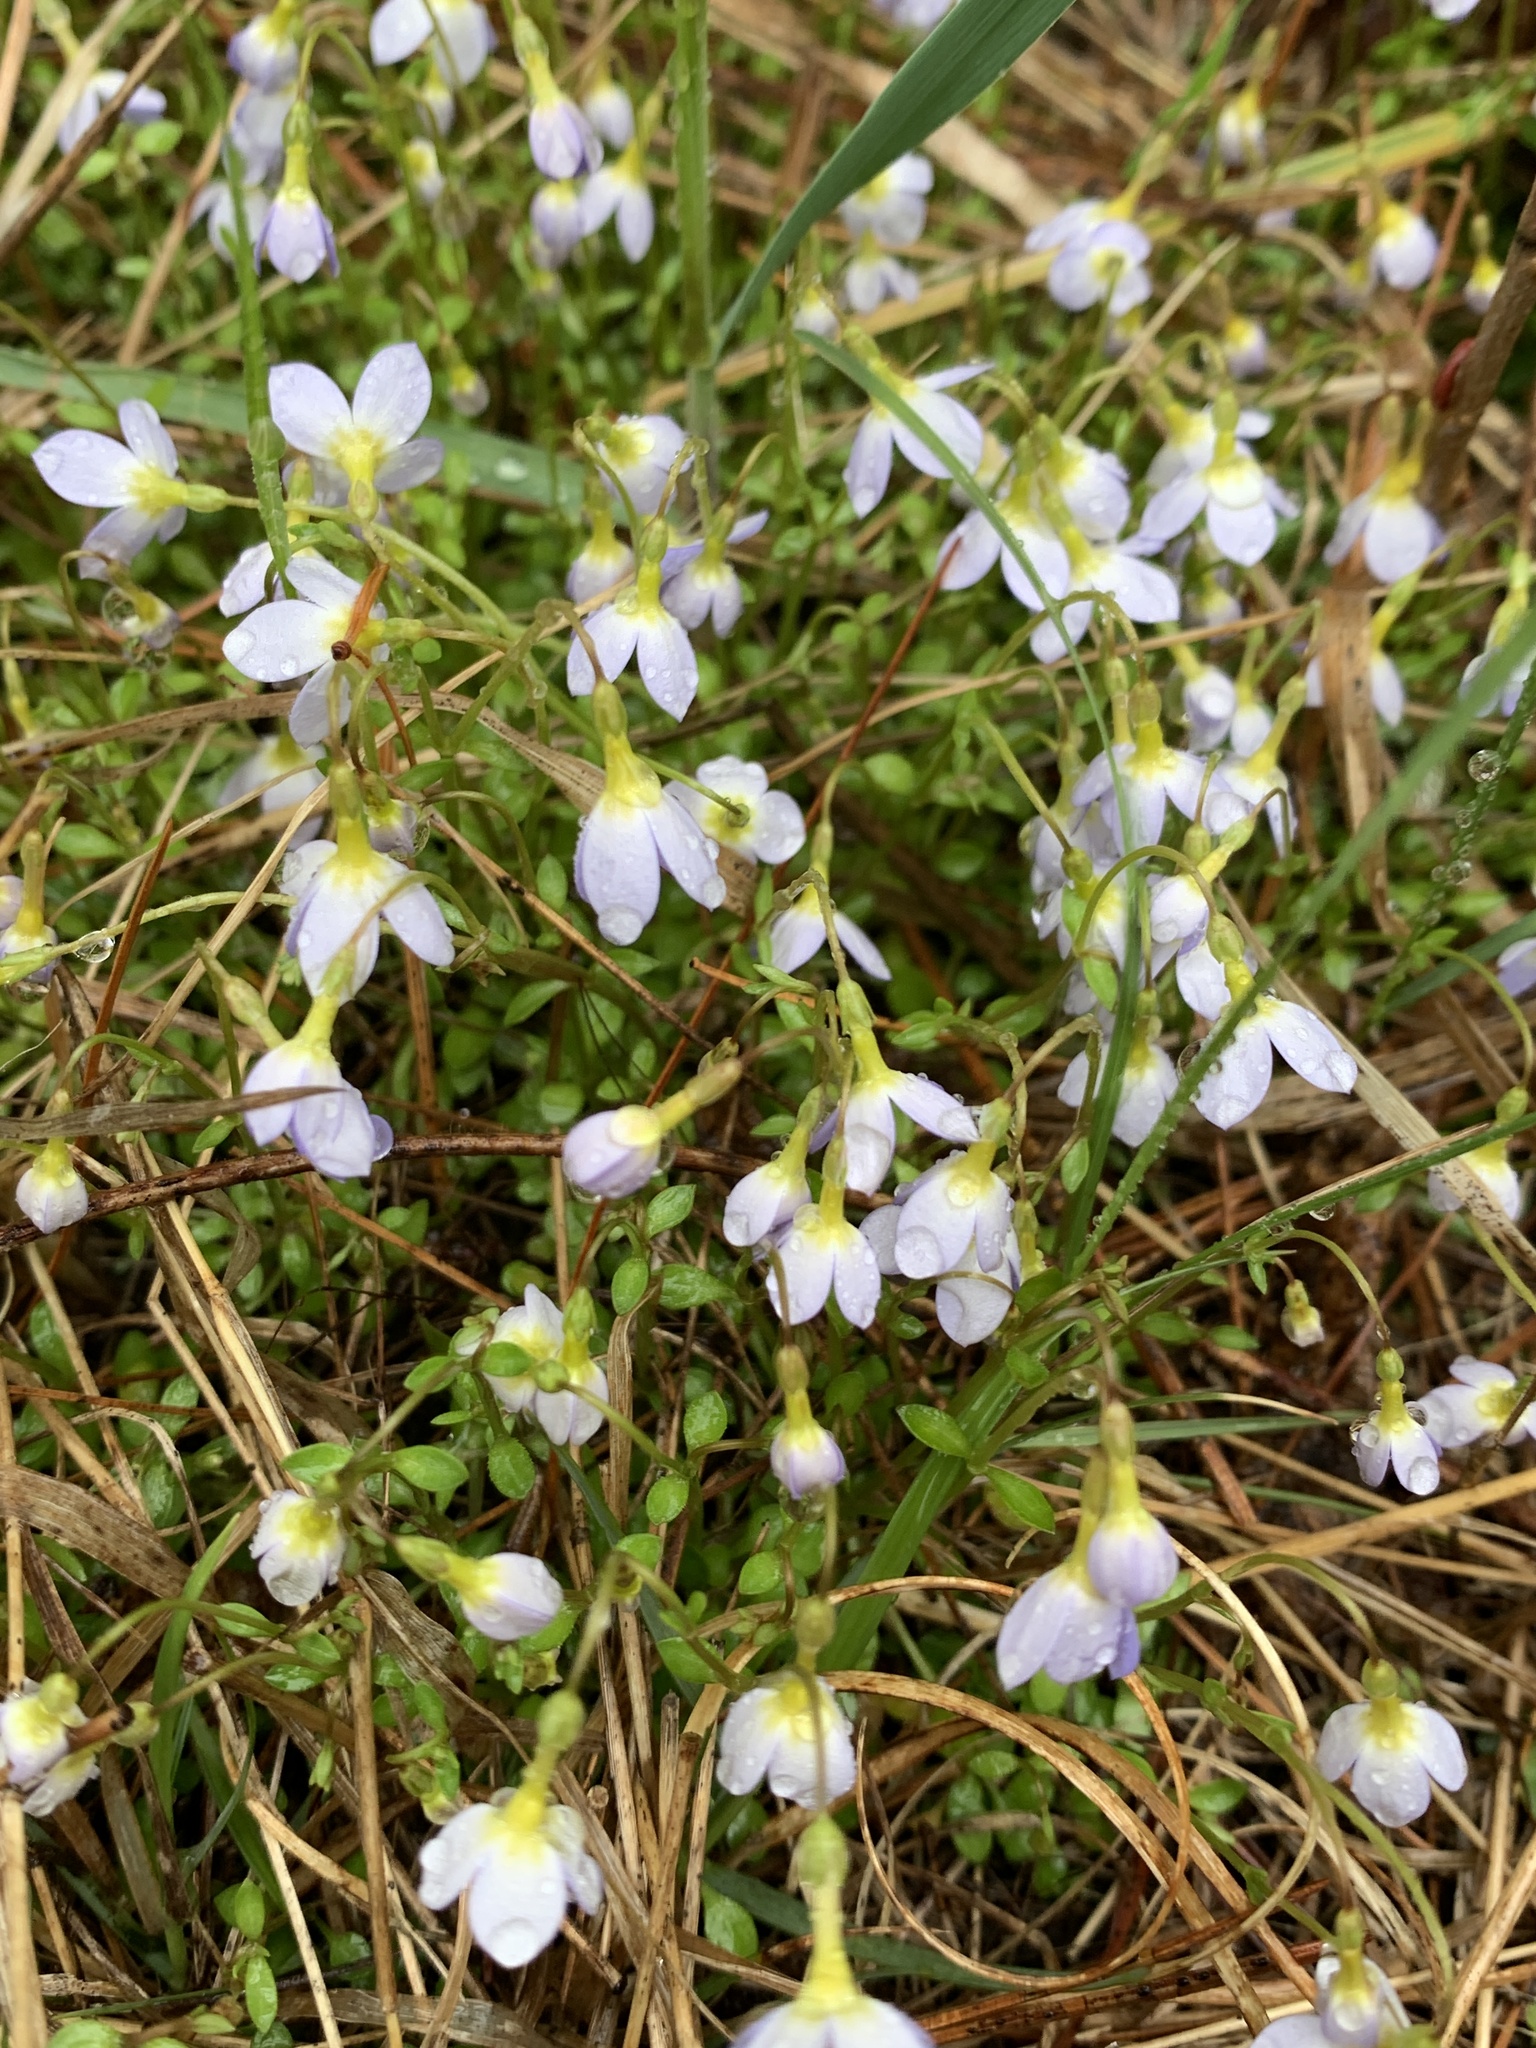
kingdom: Plantae
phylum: Tracheophyta
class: Magnoliopsida
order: Gentianales
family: Rubiaceae
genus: Houstonia
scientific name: Houstonia caerulea
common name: Bluets
